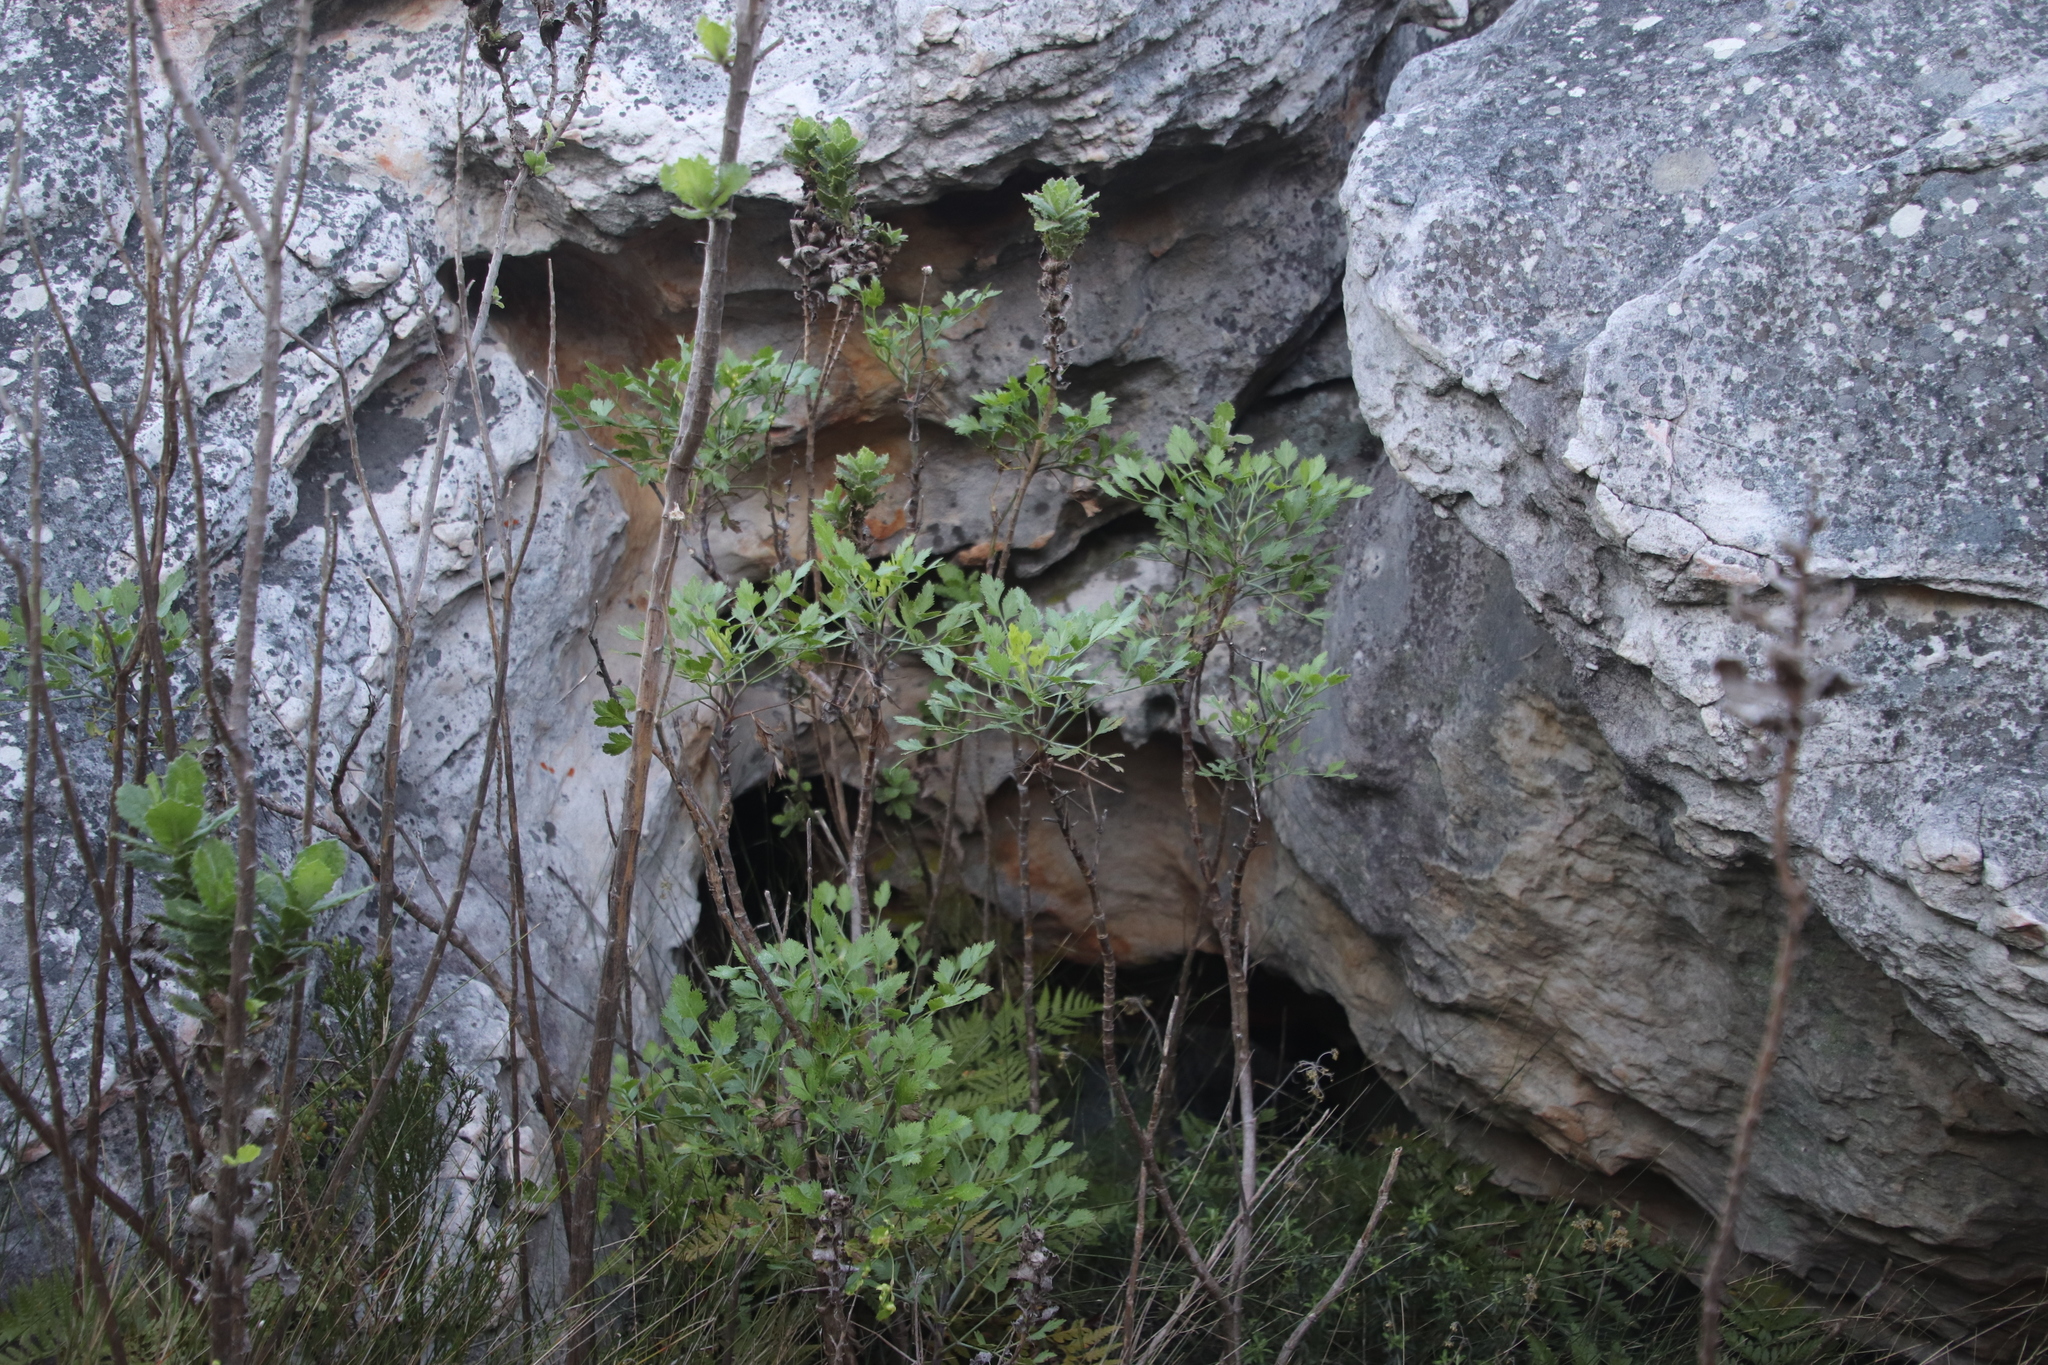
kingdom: Plantae
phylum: Tracheophyta
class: Magnoliopsida
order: Apiales
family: Apiaceae
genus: Notobubon
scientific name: Notobubon galbanum
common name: Blisterbush
